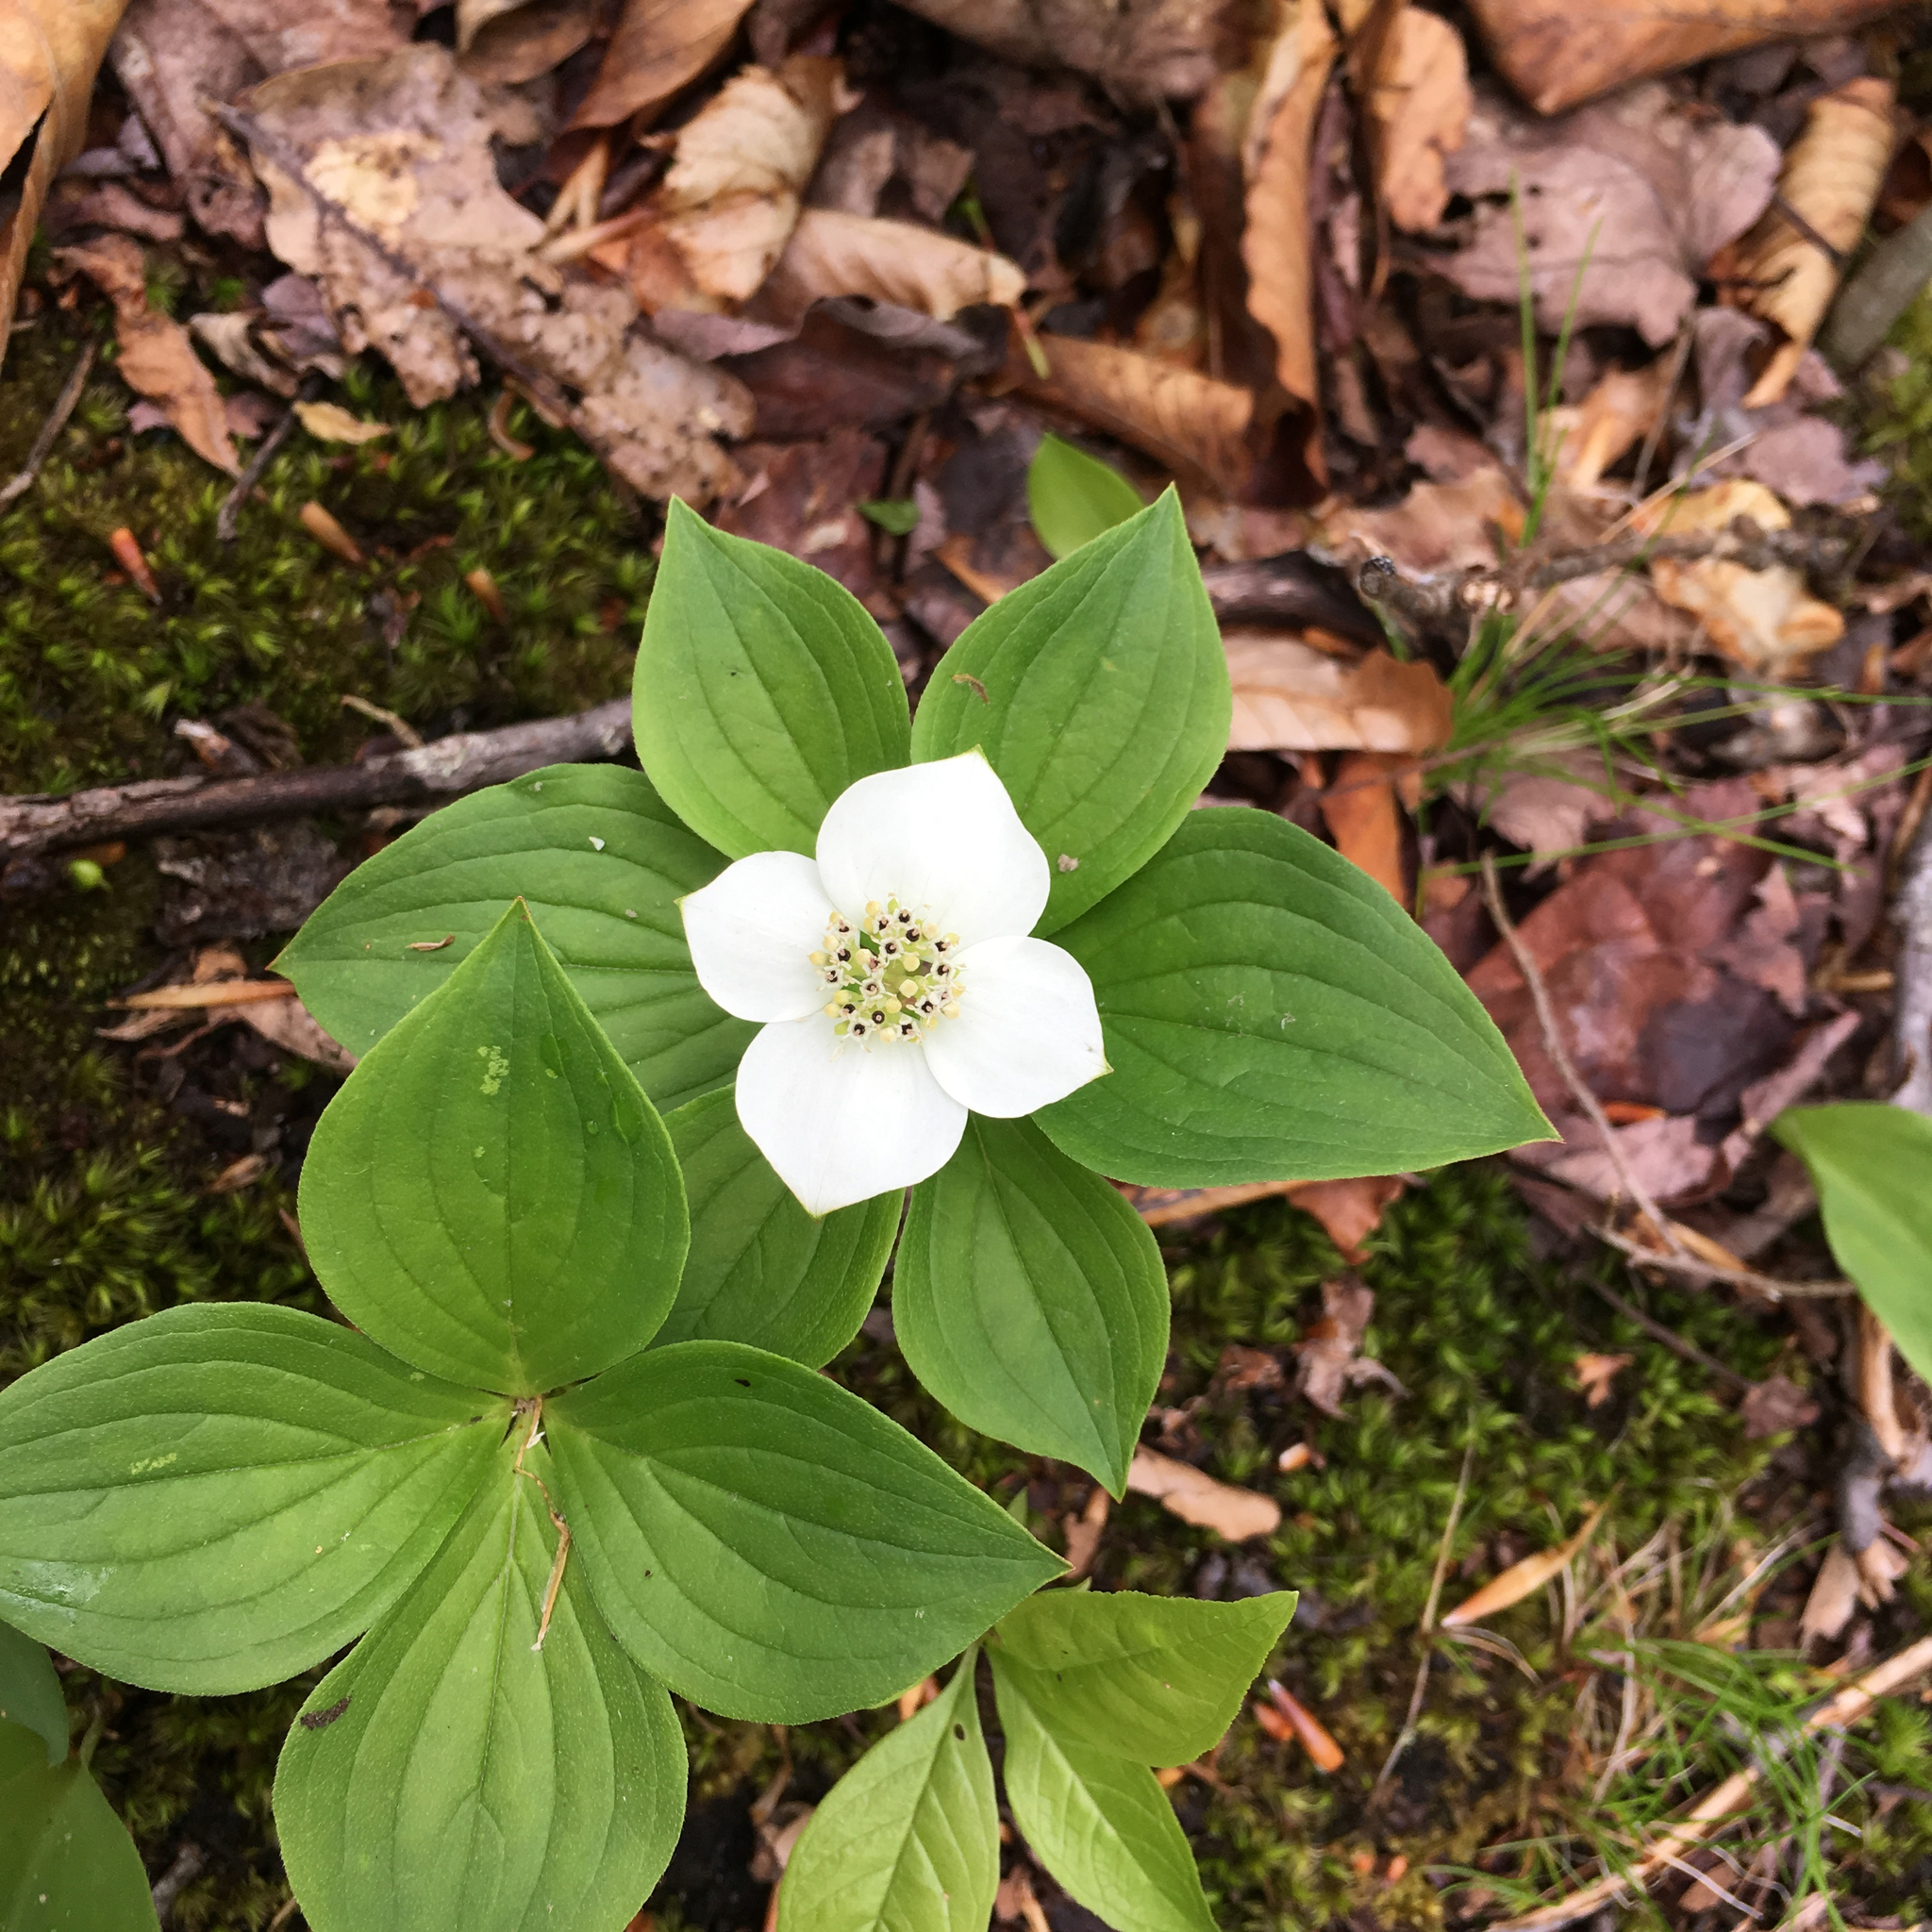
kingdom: Plantae
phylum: Tracheophyta
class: Magnoliopsida
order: Cornales
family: Cornaceae
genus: Cornus
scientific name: Cornus canadensis
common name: Creeping dogwood
